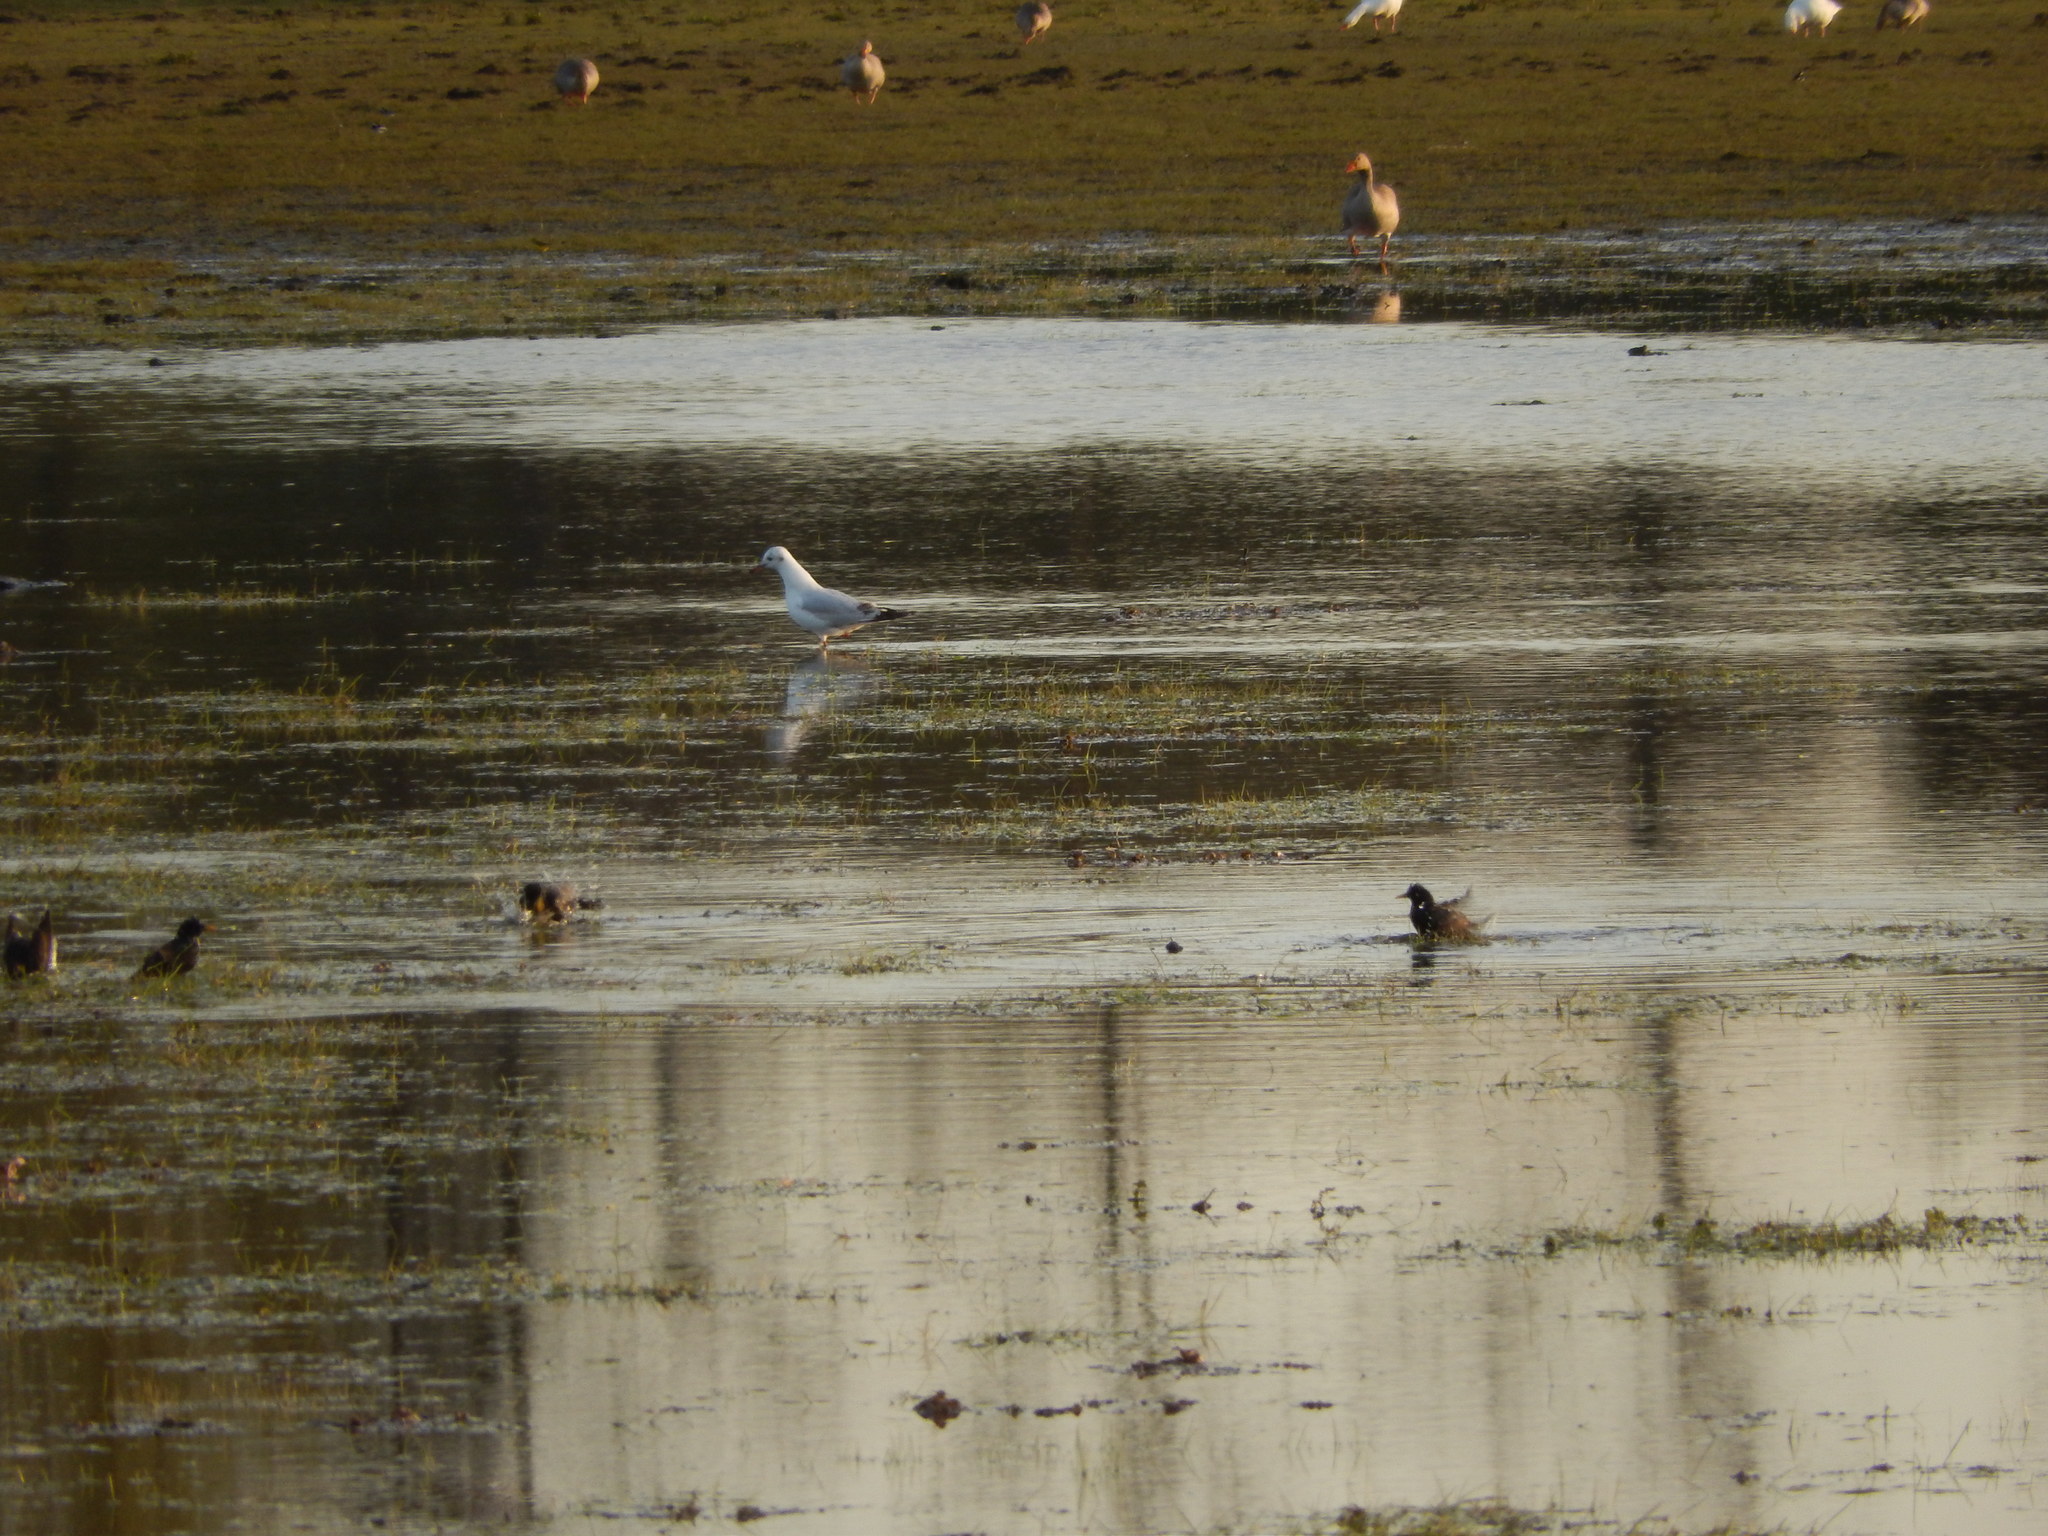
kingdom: Animalia
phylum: Chordata
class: Aves
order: Charadriiformes
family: Laridae
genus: Chroicocephalus
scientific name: Chroicocephalus ridibundus
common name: Black-headed gull
